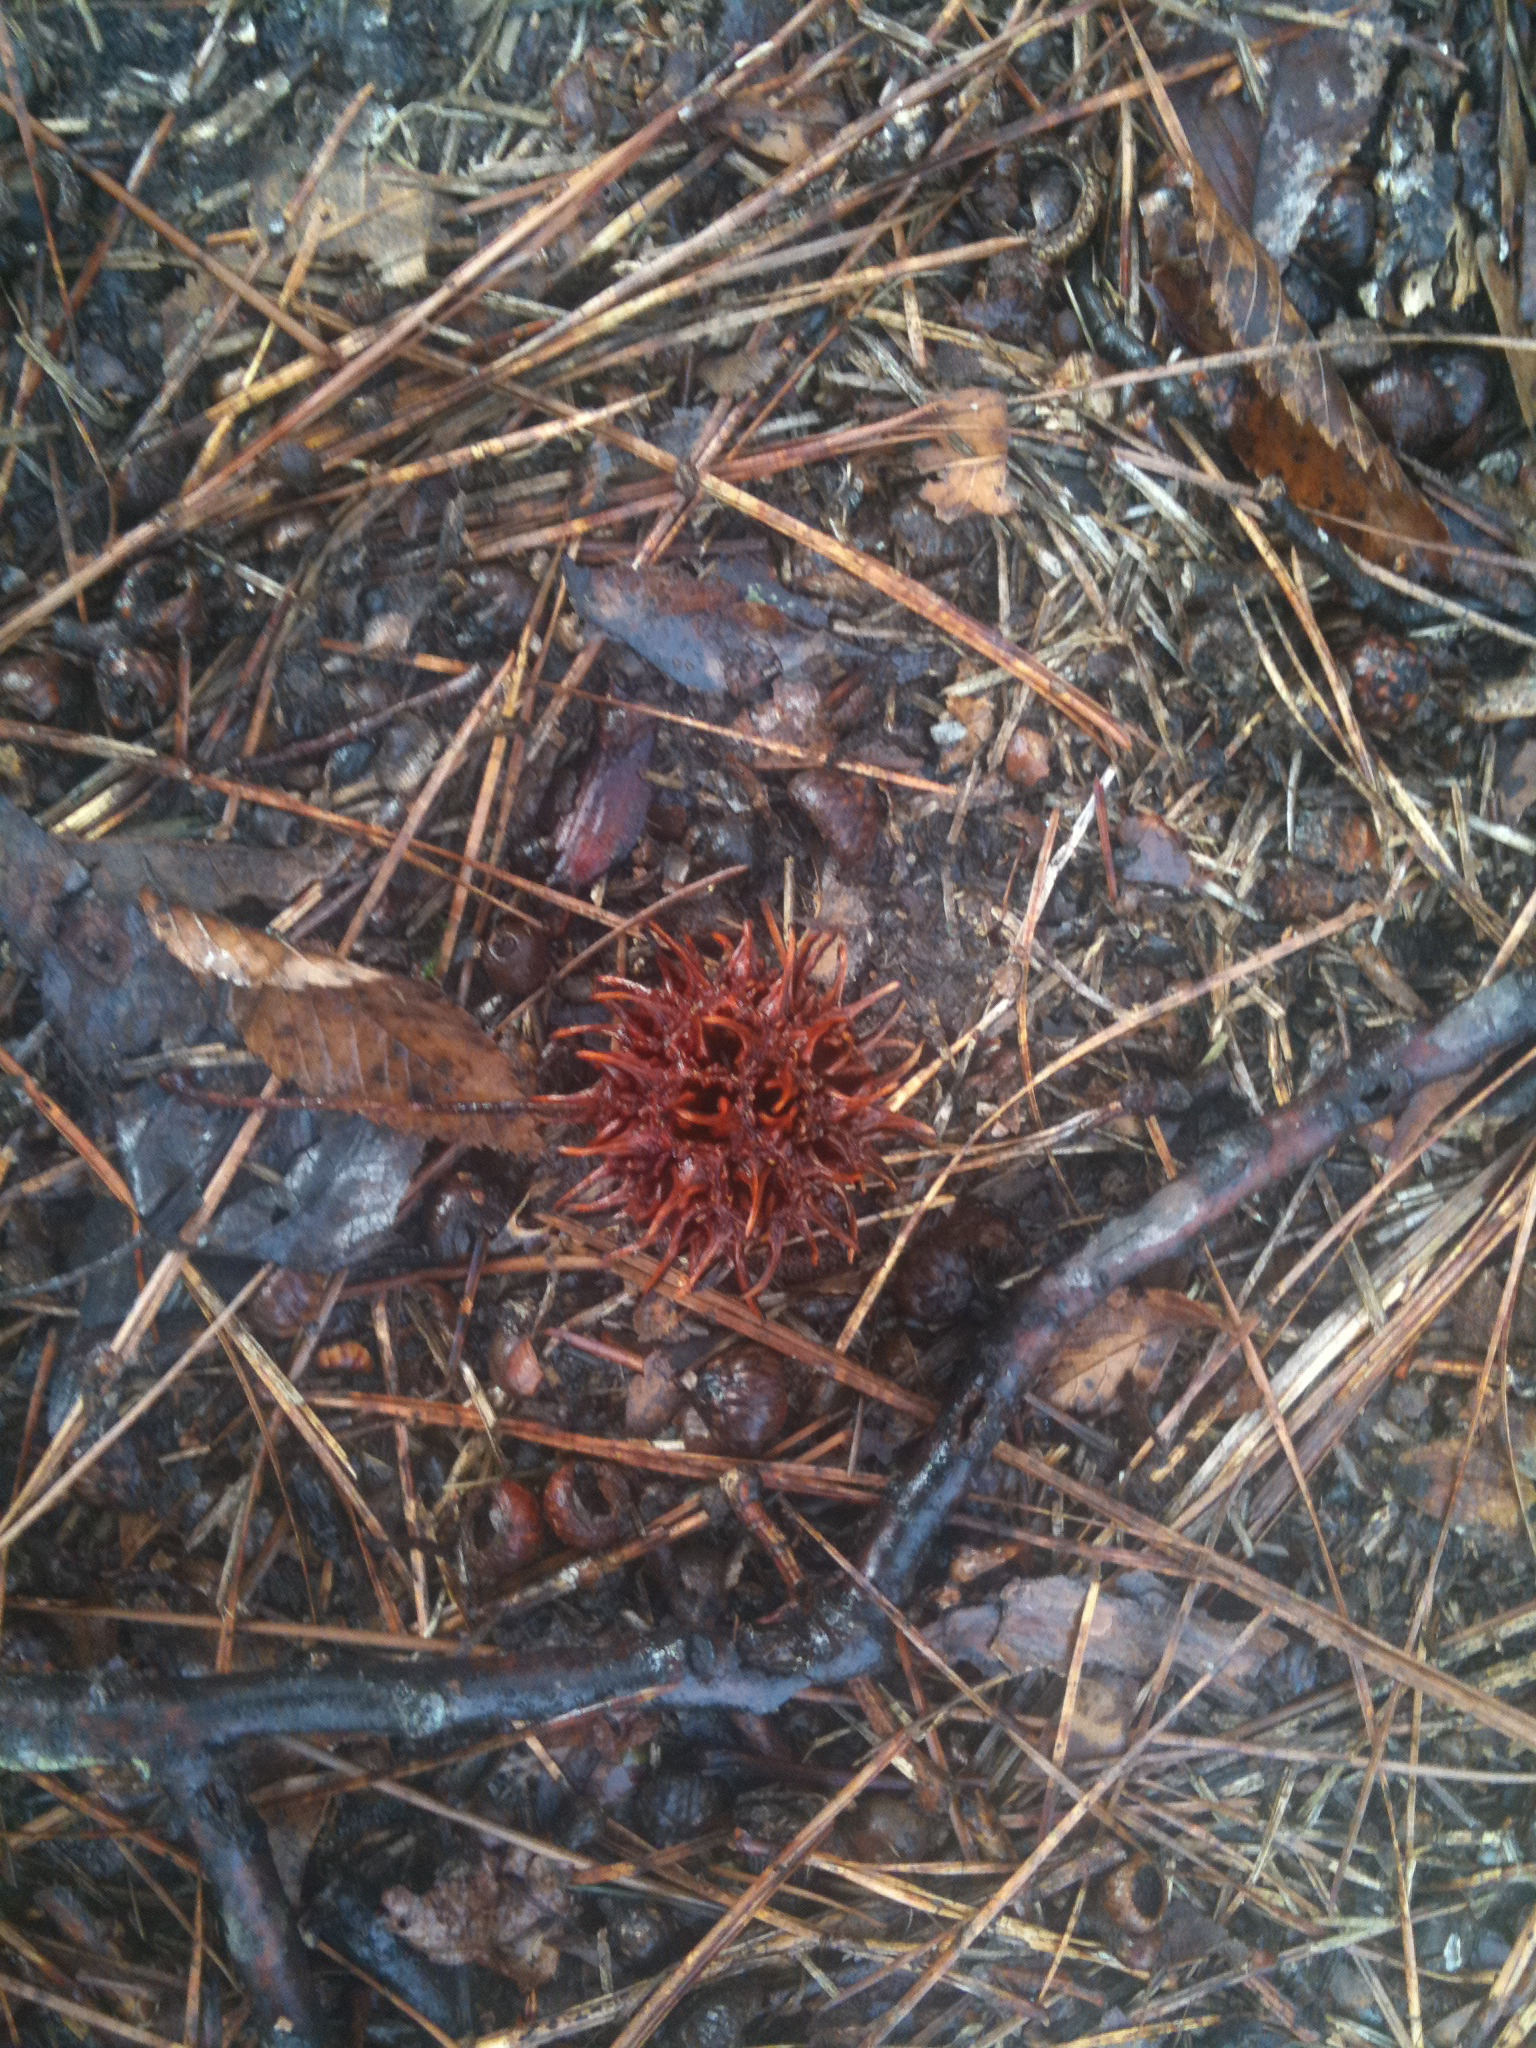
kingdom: Plantae
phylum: Tracheophyta
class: Magnoliopsida
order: Saxifragales
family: Altingiaceae
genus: Liquidambar
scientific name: Liquidambar styraciflua
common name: Sweet gum
